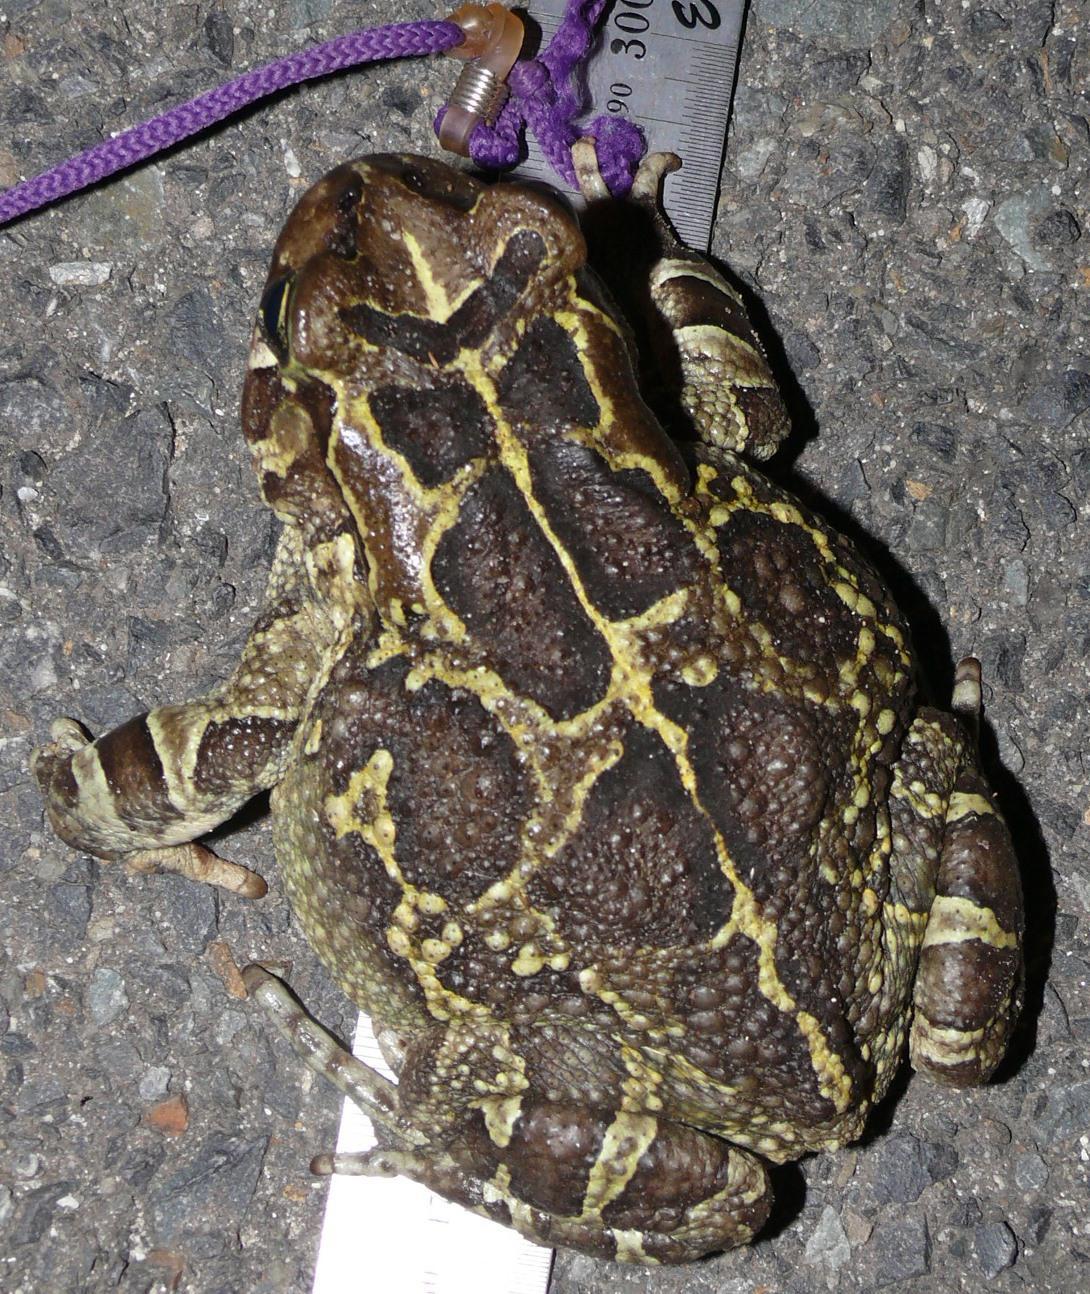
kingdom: Animalia
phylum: Chordata
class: Amphibia
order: Anura
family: Bufonidae
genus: Sclerophrys
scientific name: Sclerophrys pantherina
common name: Panther toad
